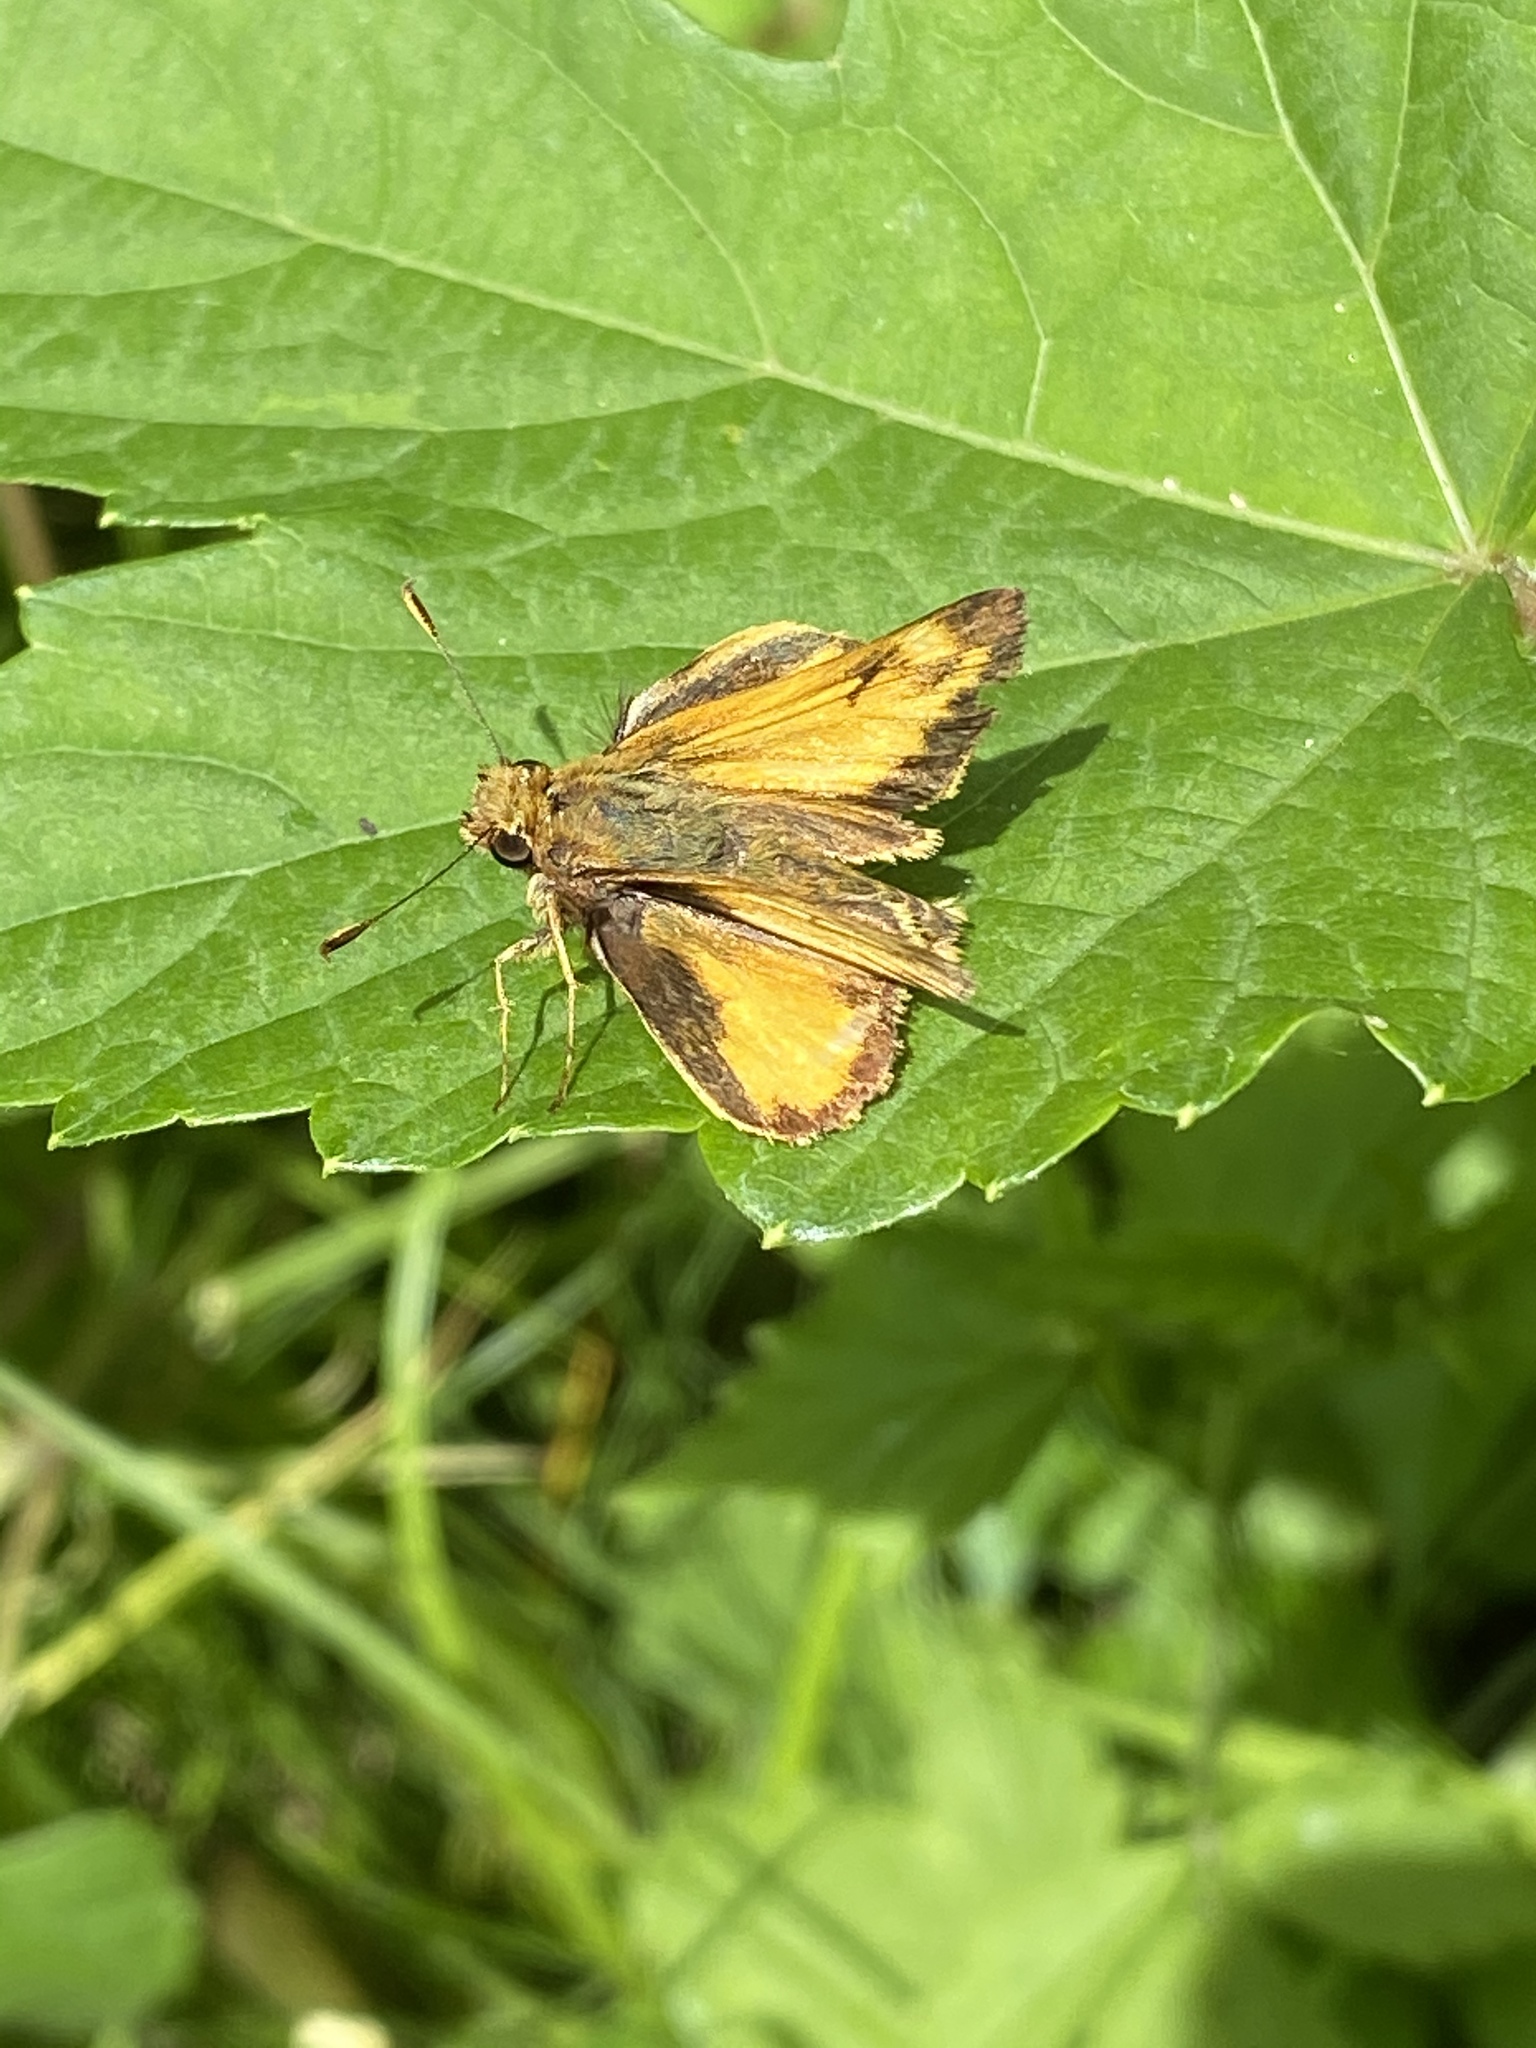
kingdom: Animalia
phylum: Arthropoda
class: Insecta
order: Lepidoptera
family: Hesperiidae
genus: Lon
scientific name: Lon zabulon
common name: Zabulon skipper
